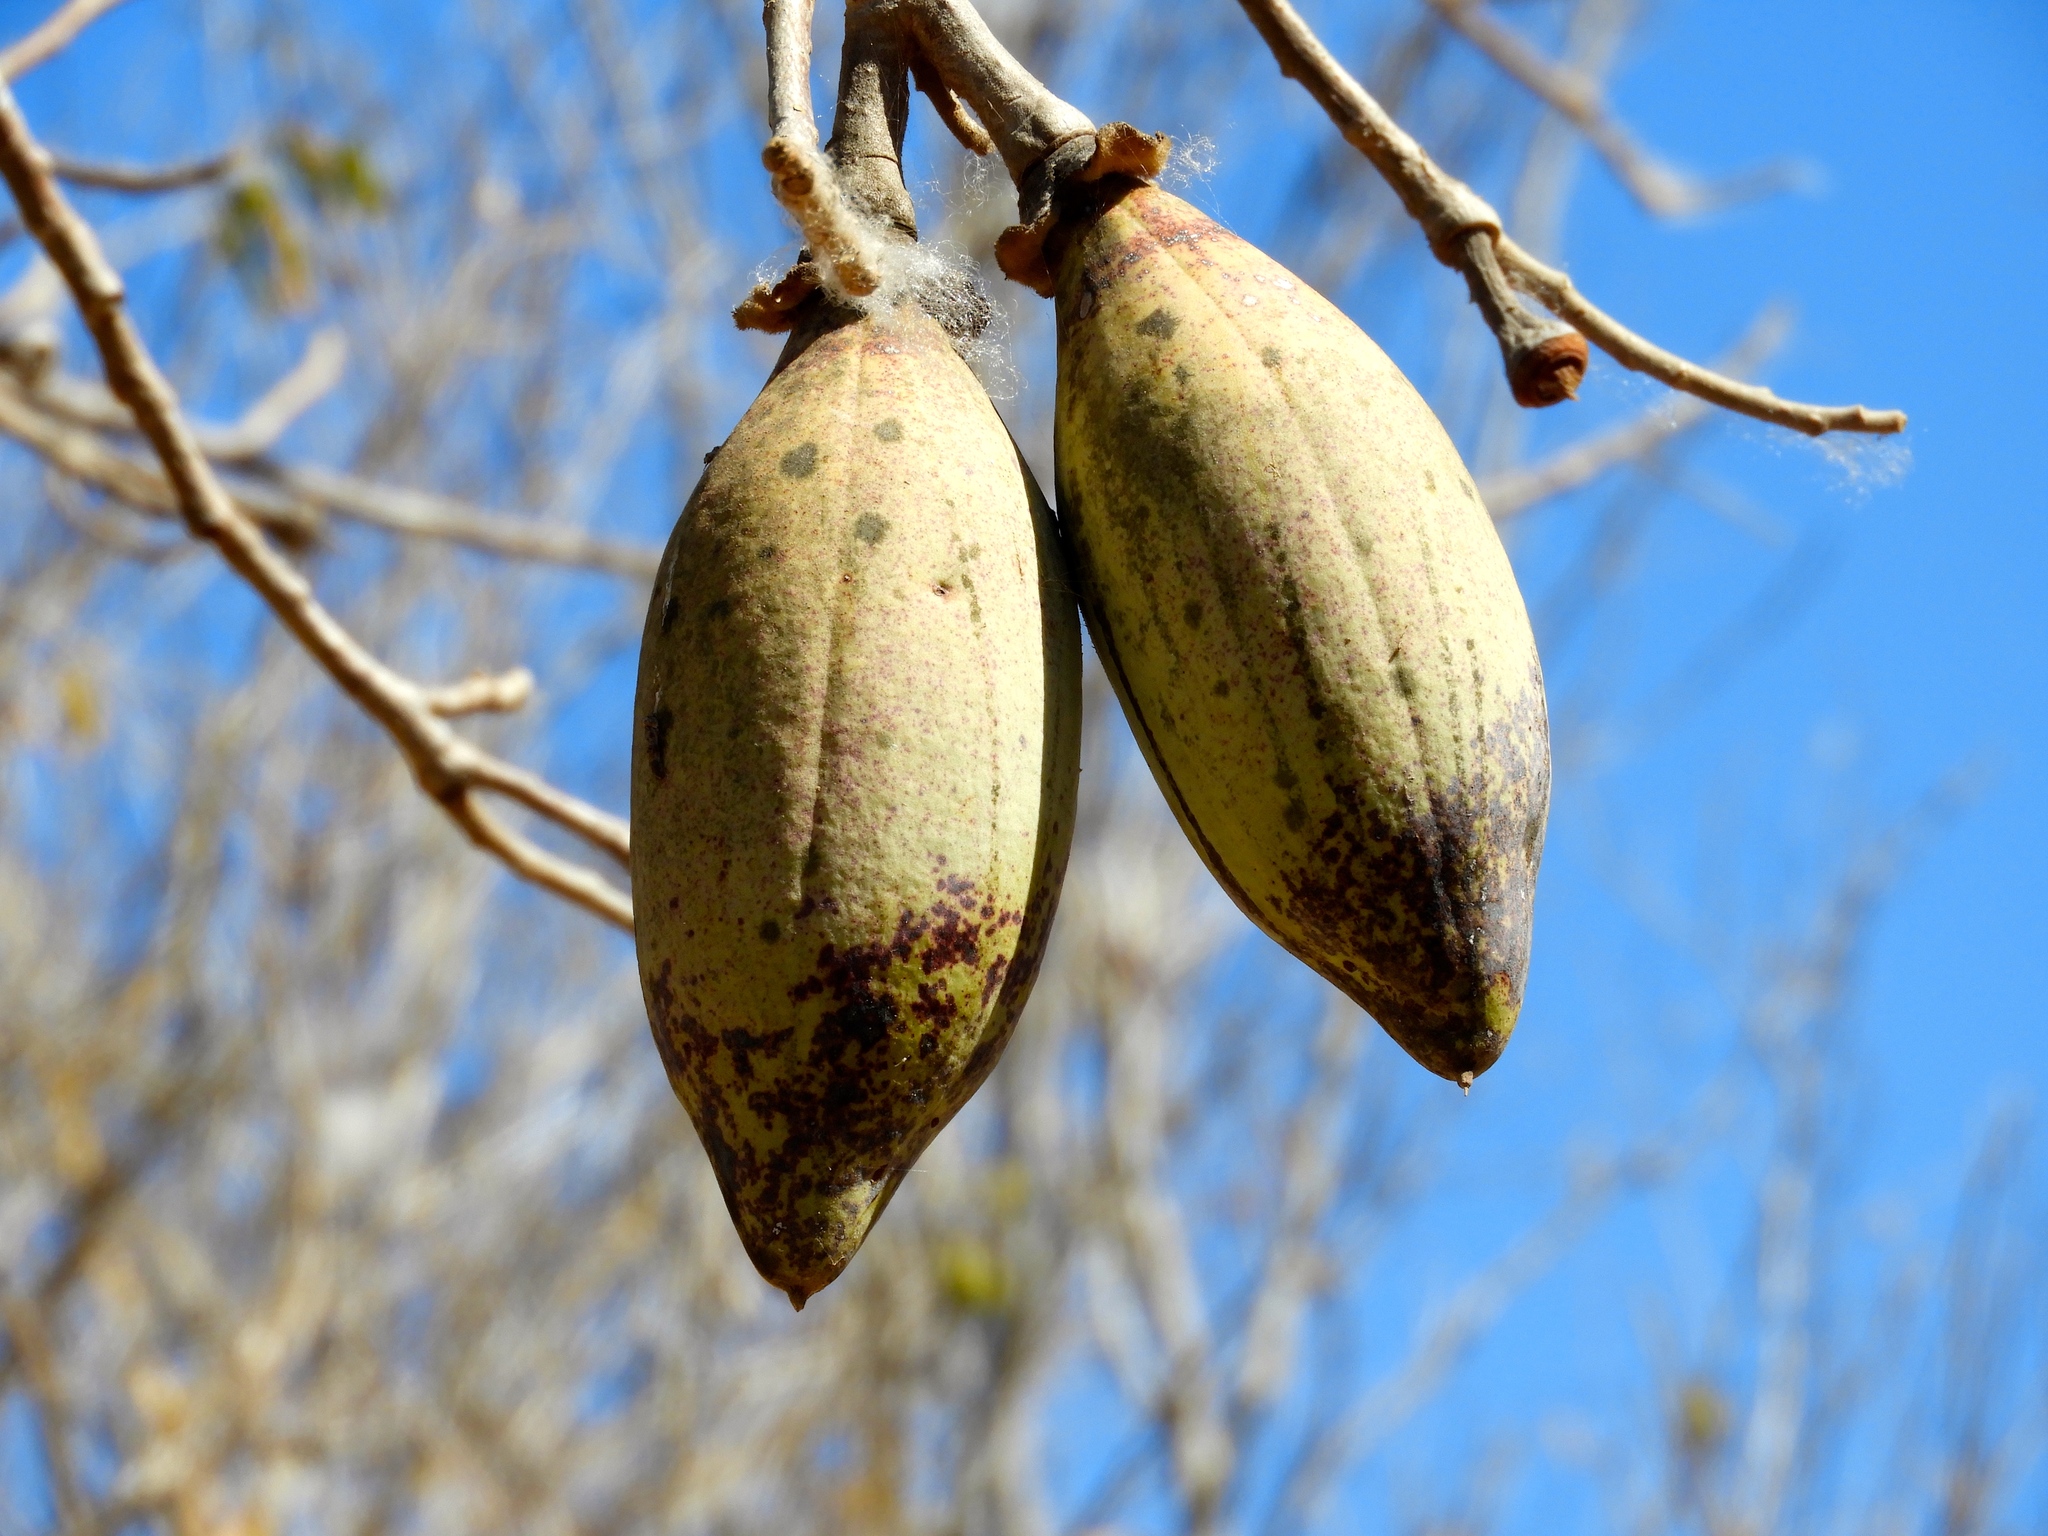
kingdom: Plantae
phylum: Tracheophyta
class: Magnoliopsida
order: Malvales
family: Malvaceae
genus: Ceiba
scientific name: Ceiba aesculifolia
